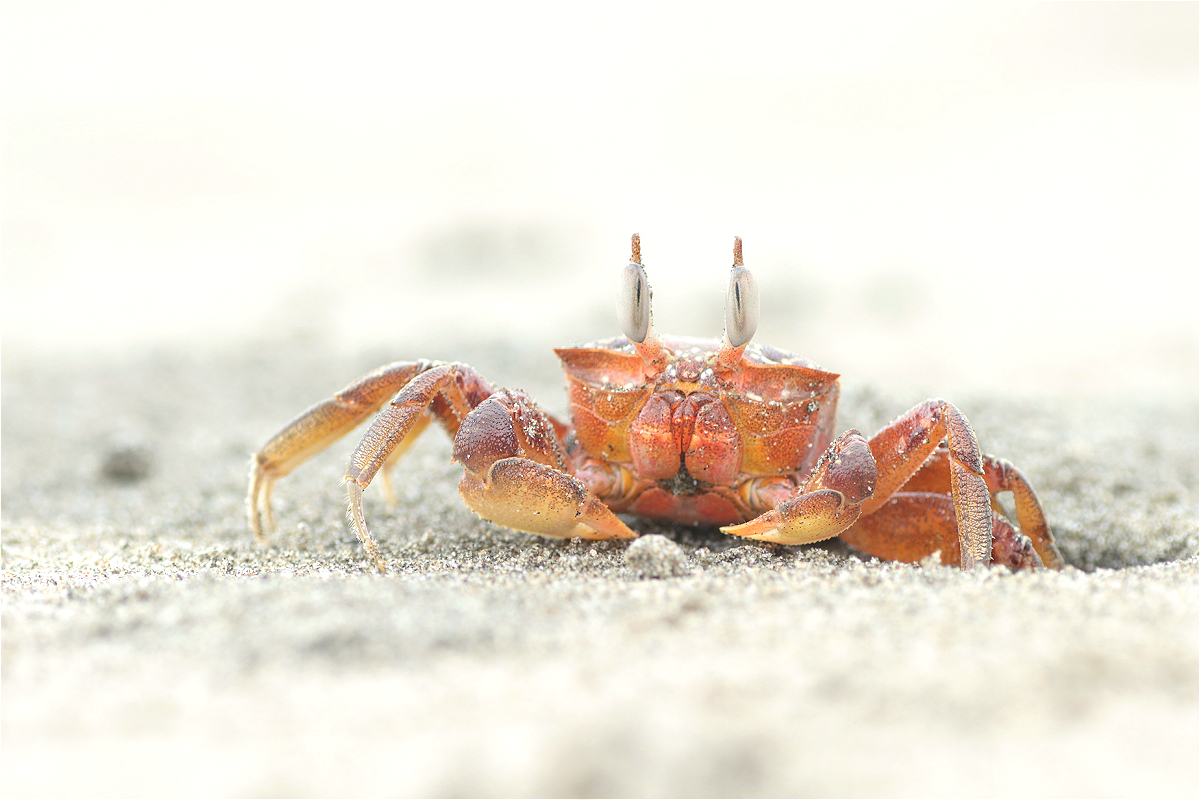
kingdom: Animalia
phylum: Arthropoda
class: Malacostraca
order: Decapoda
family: Ocypodidae
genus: Ocypode
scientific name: Ocypode gaudichaudii
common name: Pacific ghost crab
